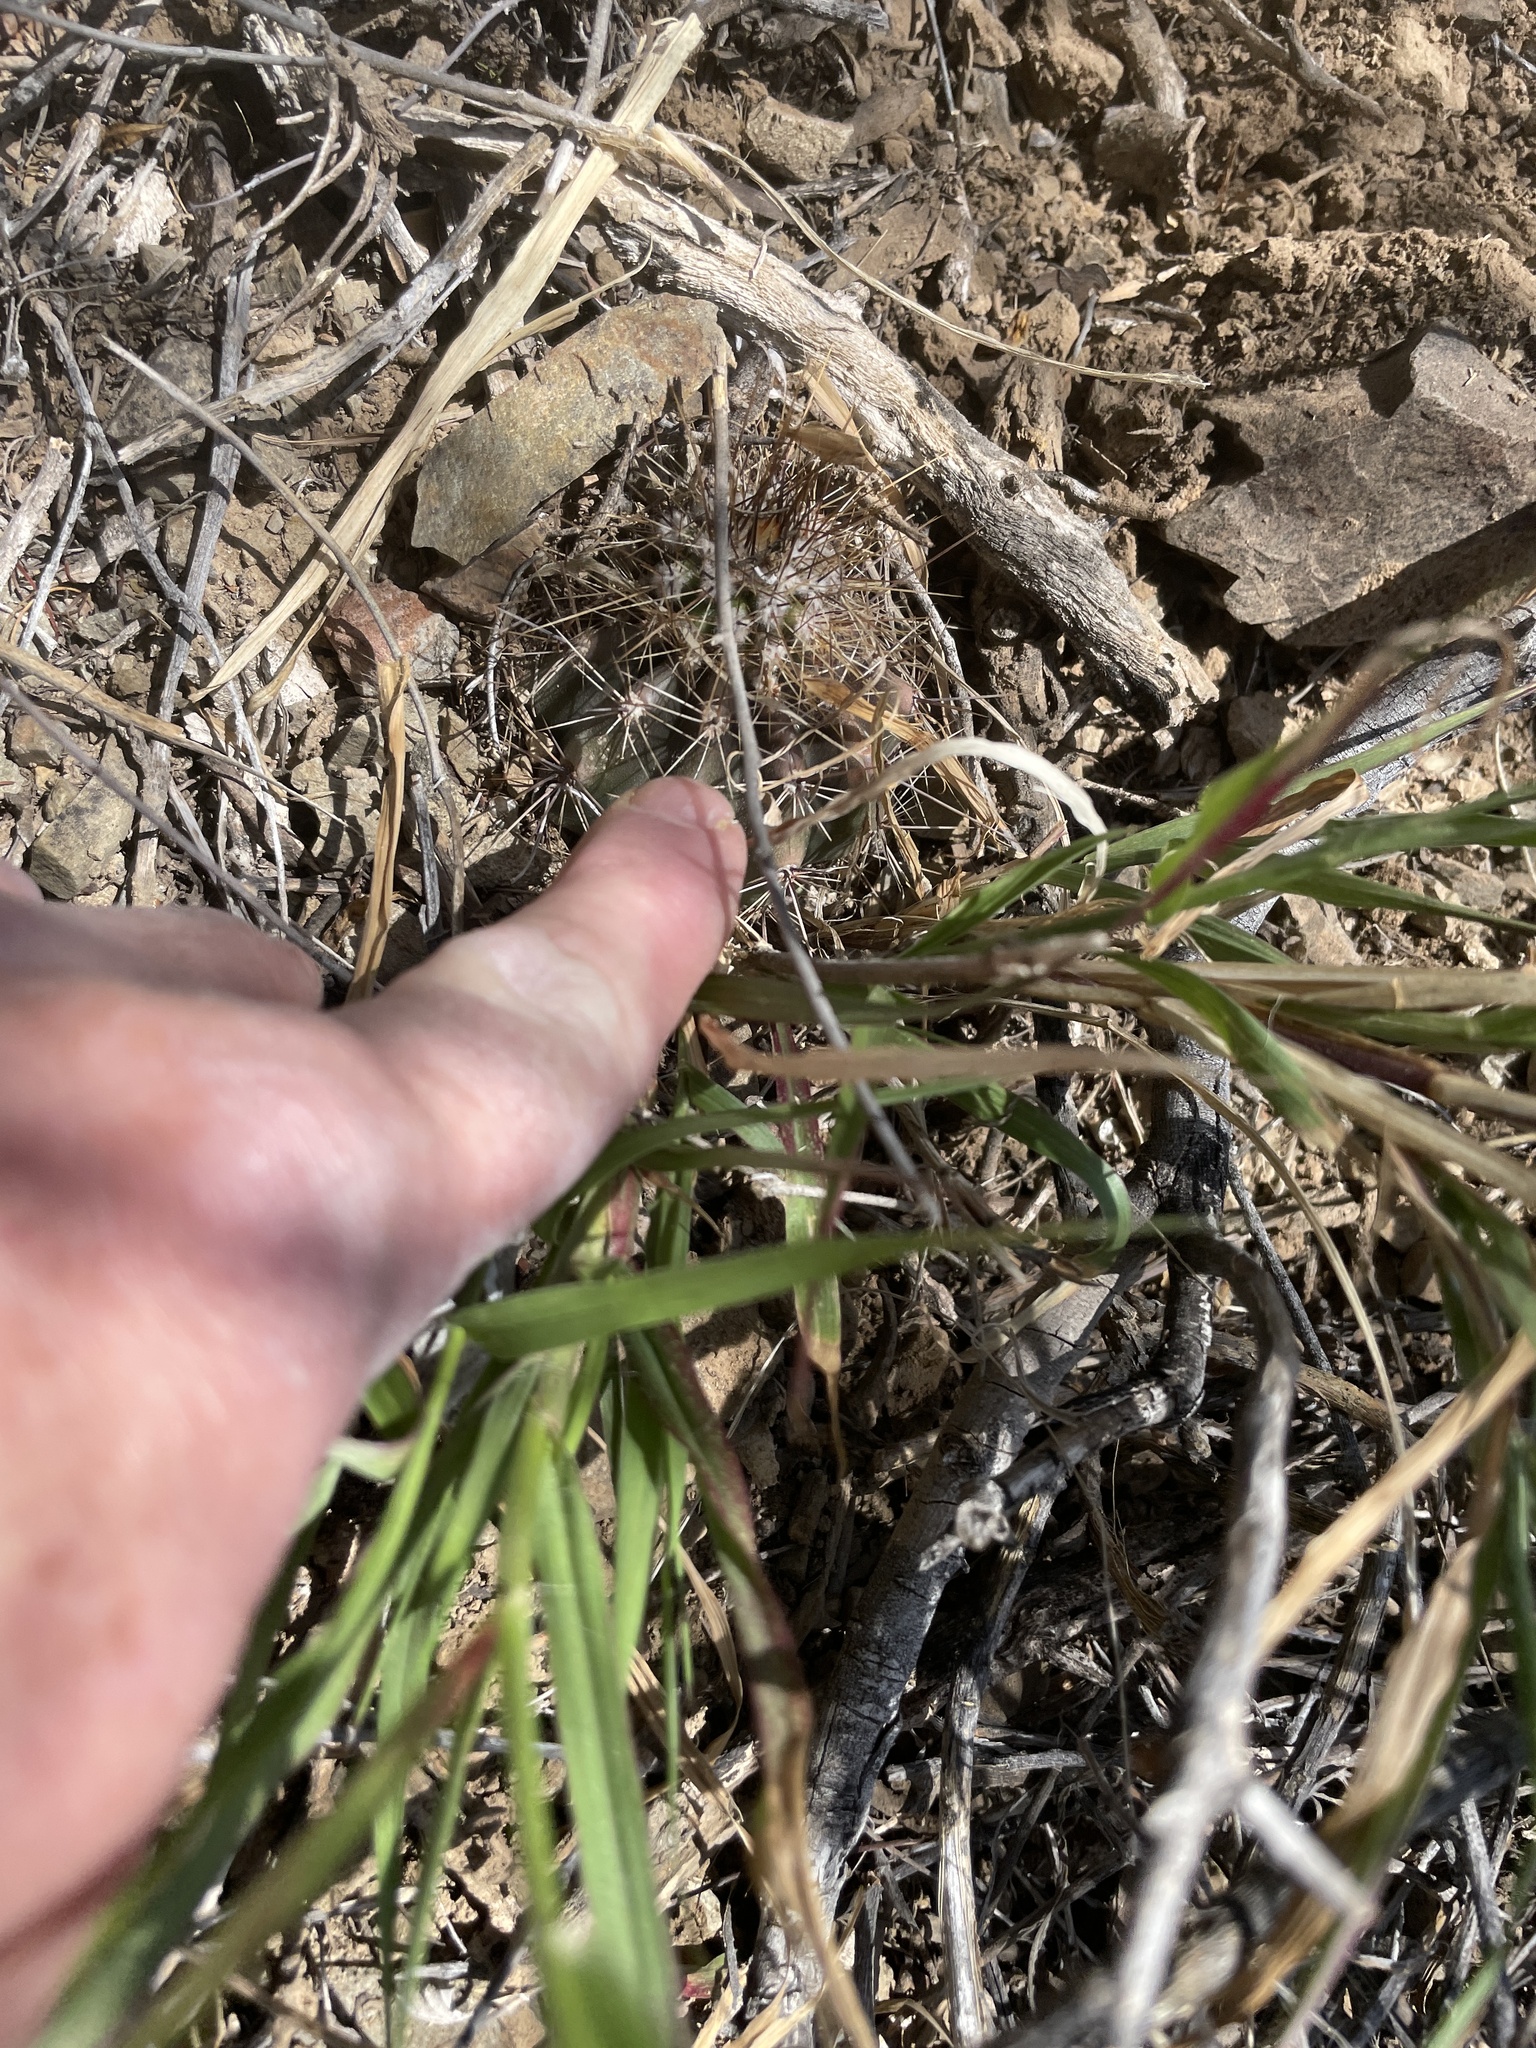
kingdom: Plantae
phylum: Tracheophyta
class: Magnoliopsida
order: Caryophyllales
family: Cactaceae
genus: Carnegiea
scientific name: Carnegiea gigantea
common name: Saguaro
